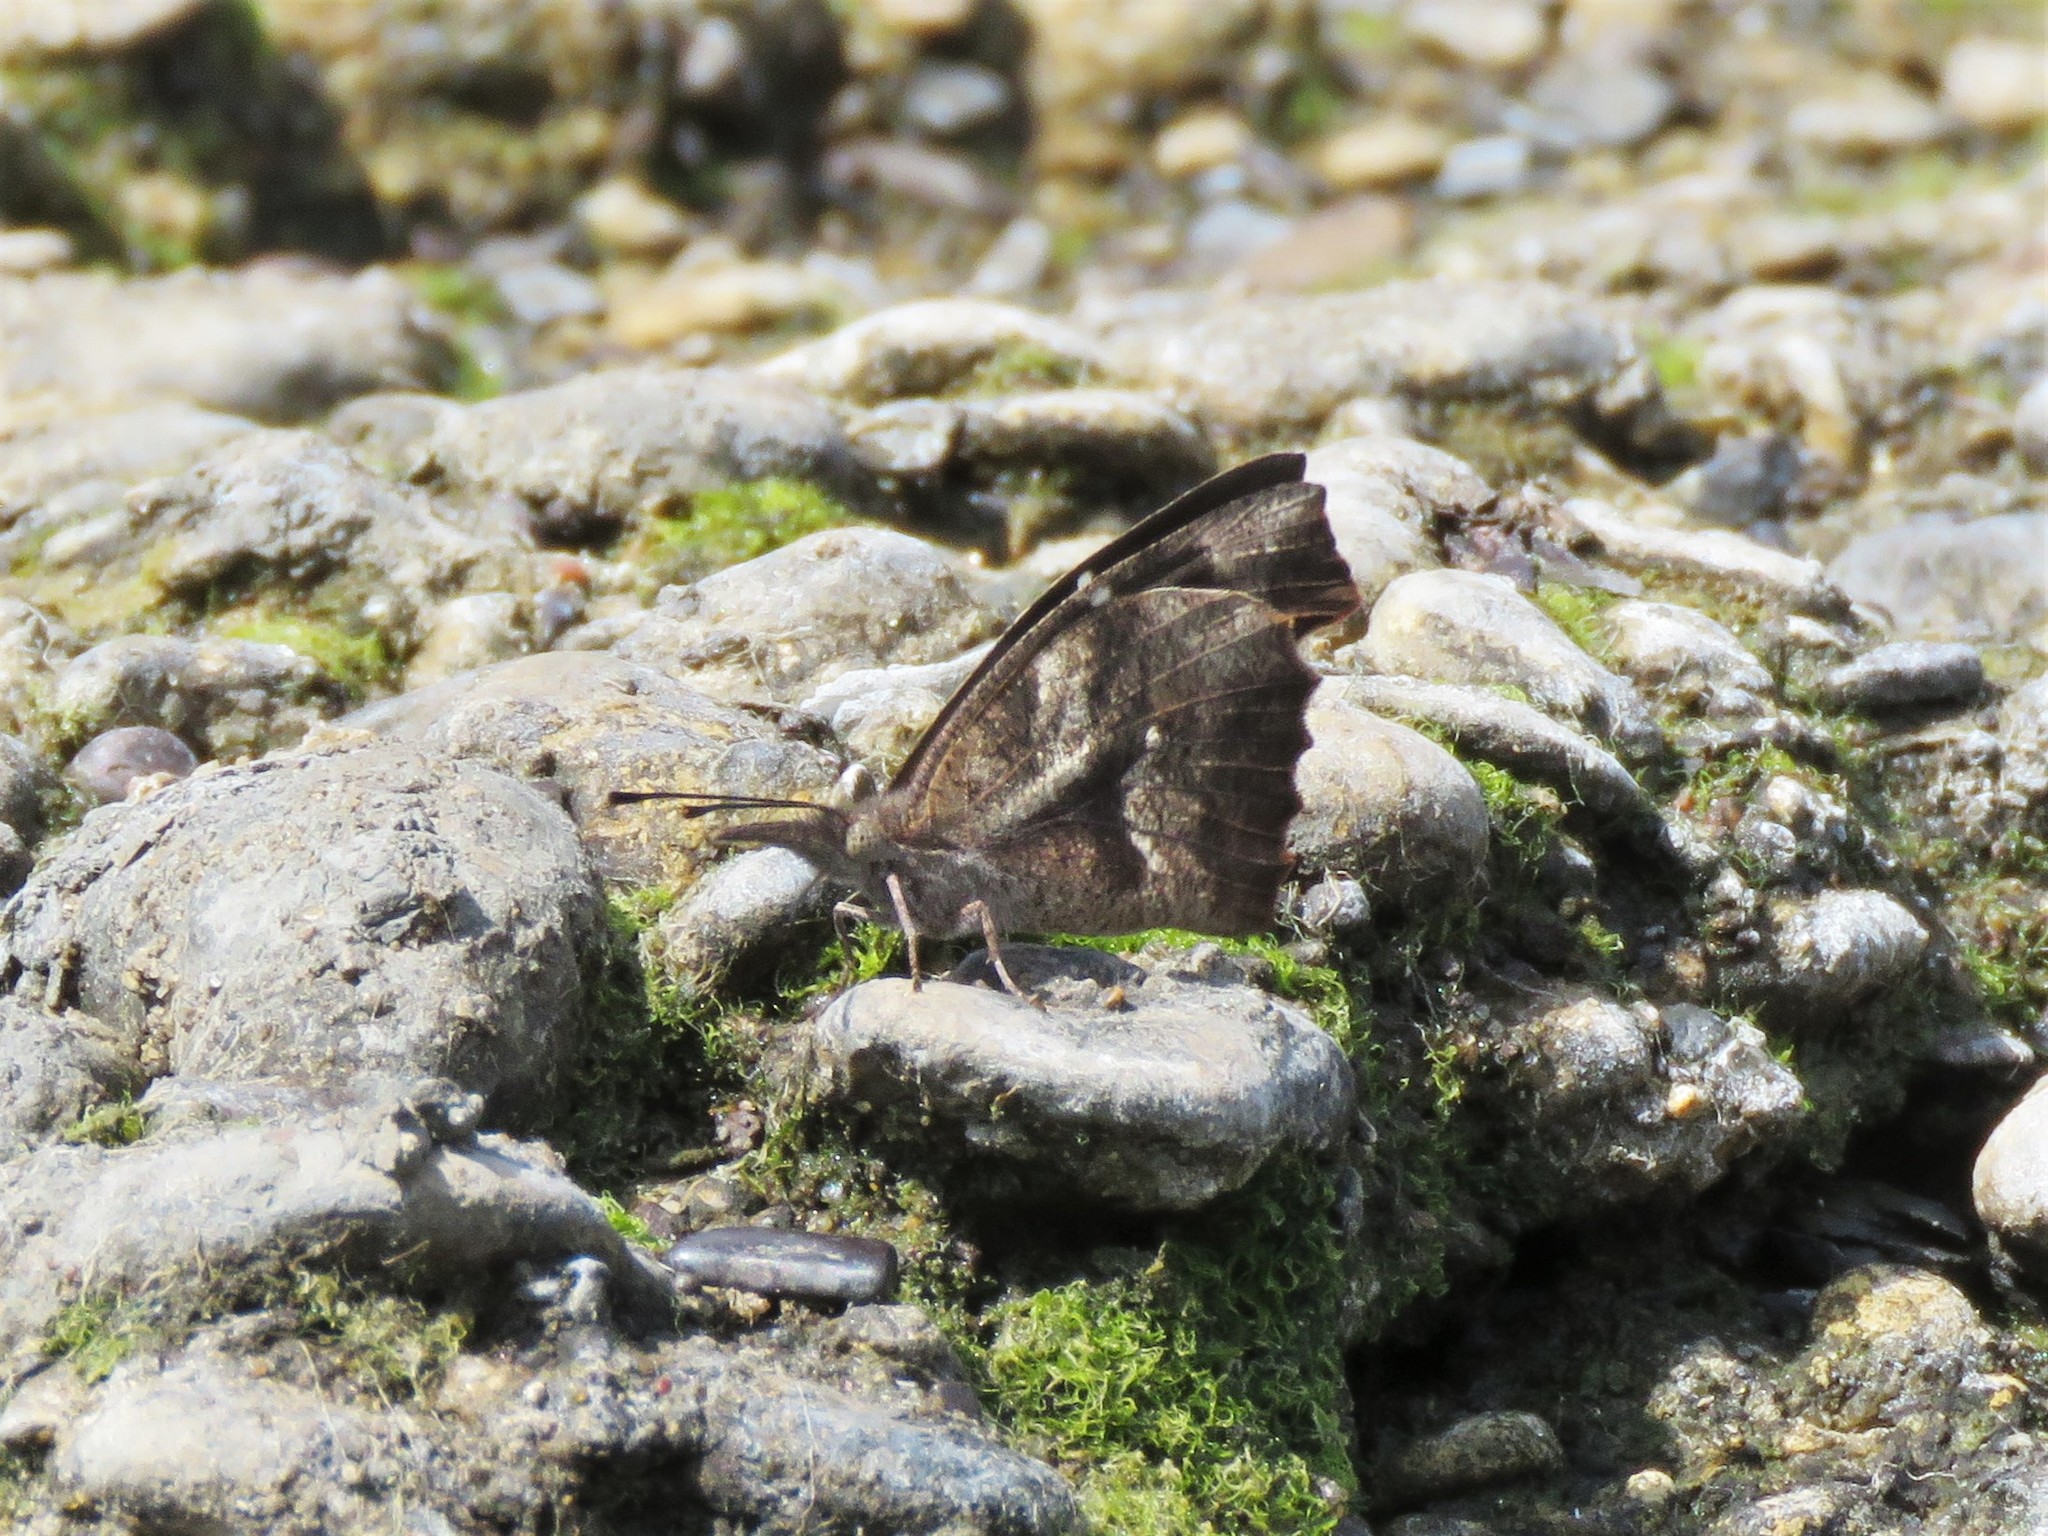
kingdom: Animalia
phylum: Arthropoda
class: Insecta
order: Lepidoptera
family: Nymphalidae
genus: Libytheana
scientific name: Libytheana carinenta
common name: American snout
